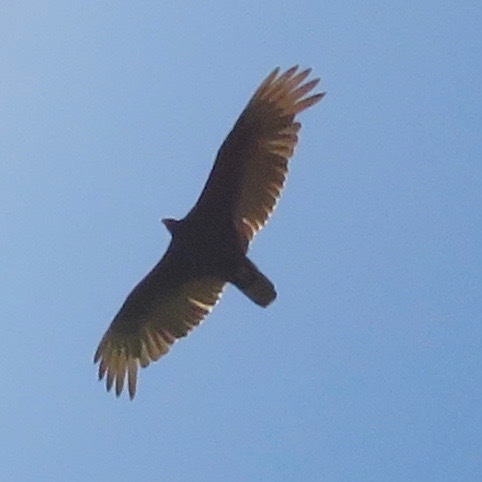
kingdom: Animalia
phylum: Chordata
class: Aves
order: Accipitriformes
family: Cathartidae
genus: Cathartes
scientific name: Cathartes aura
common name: Turkey vulture
